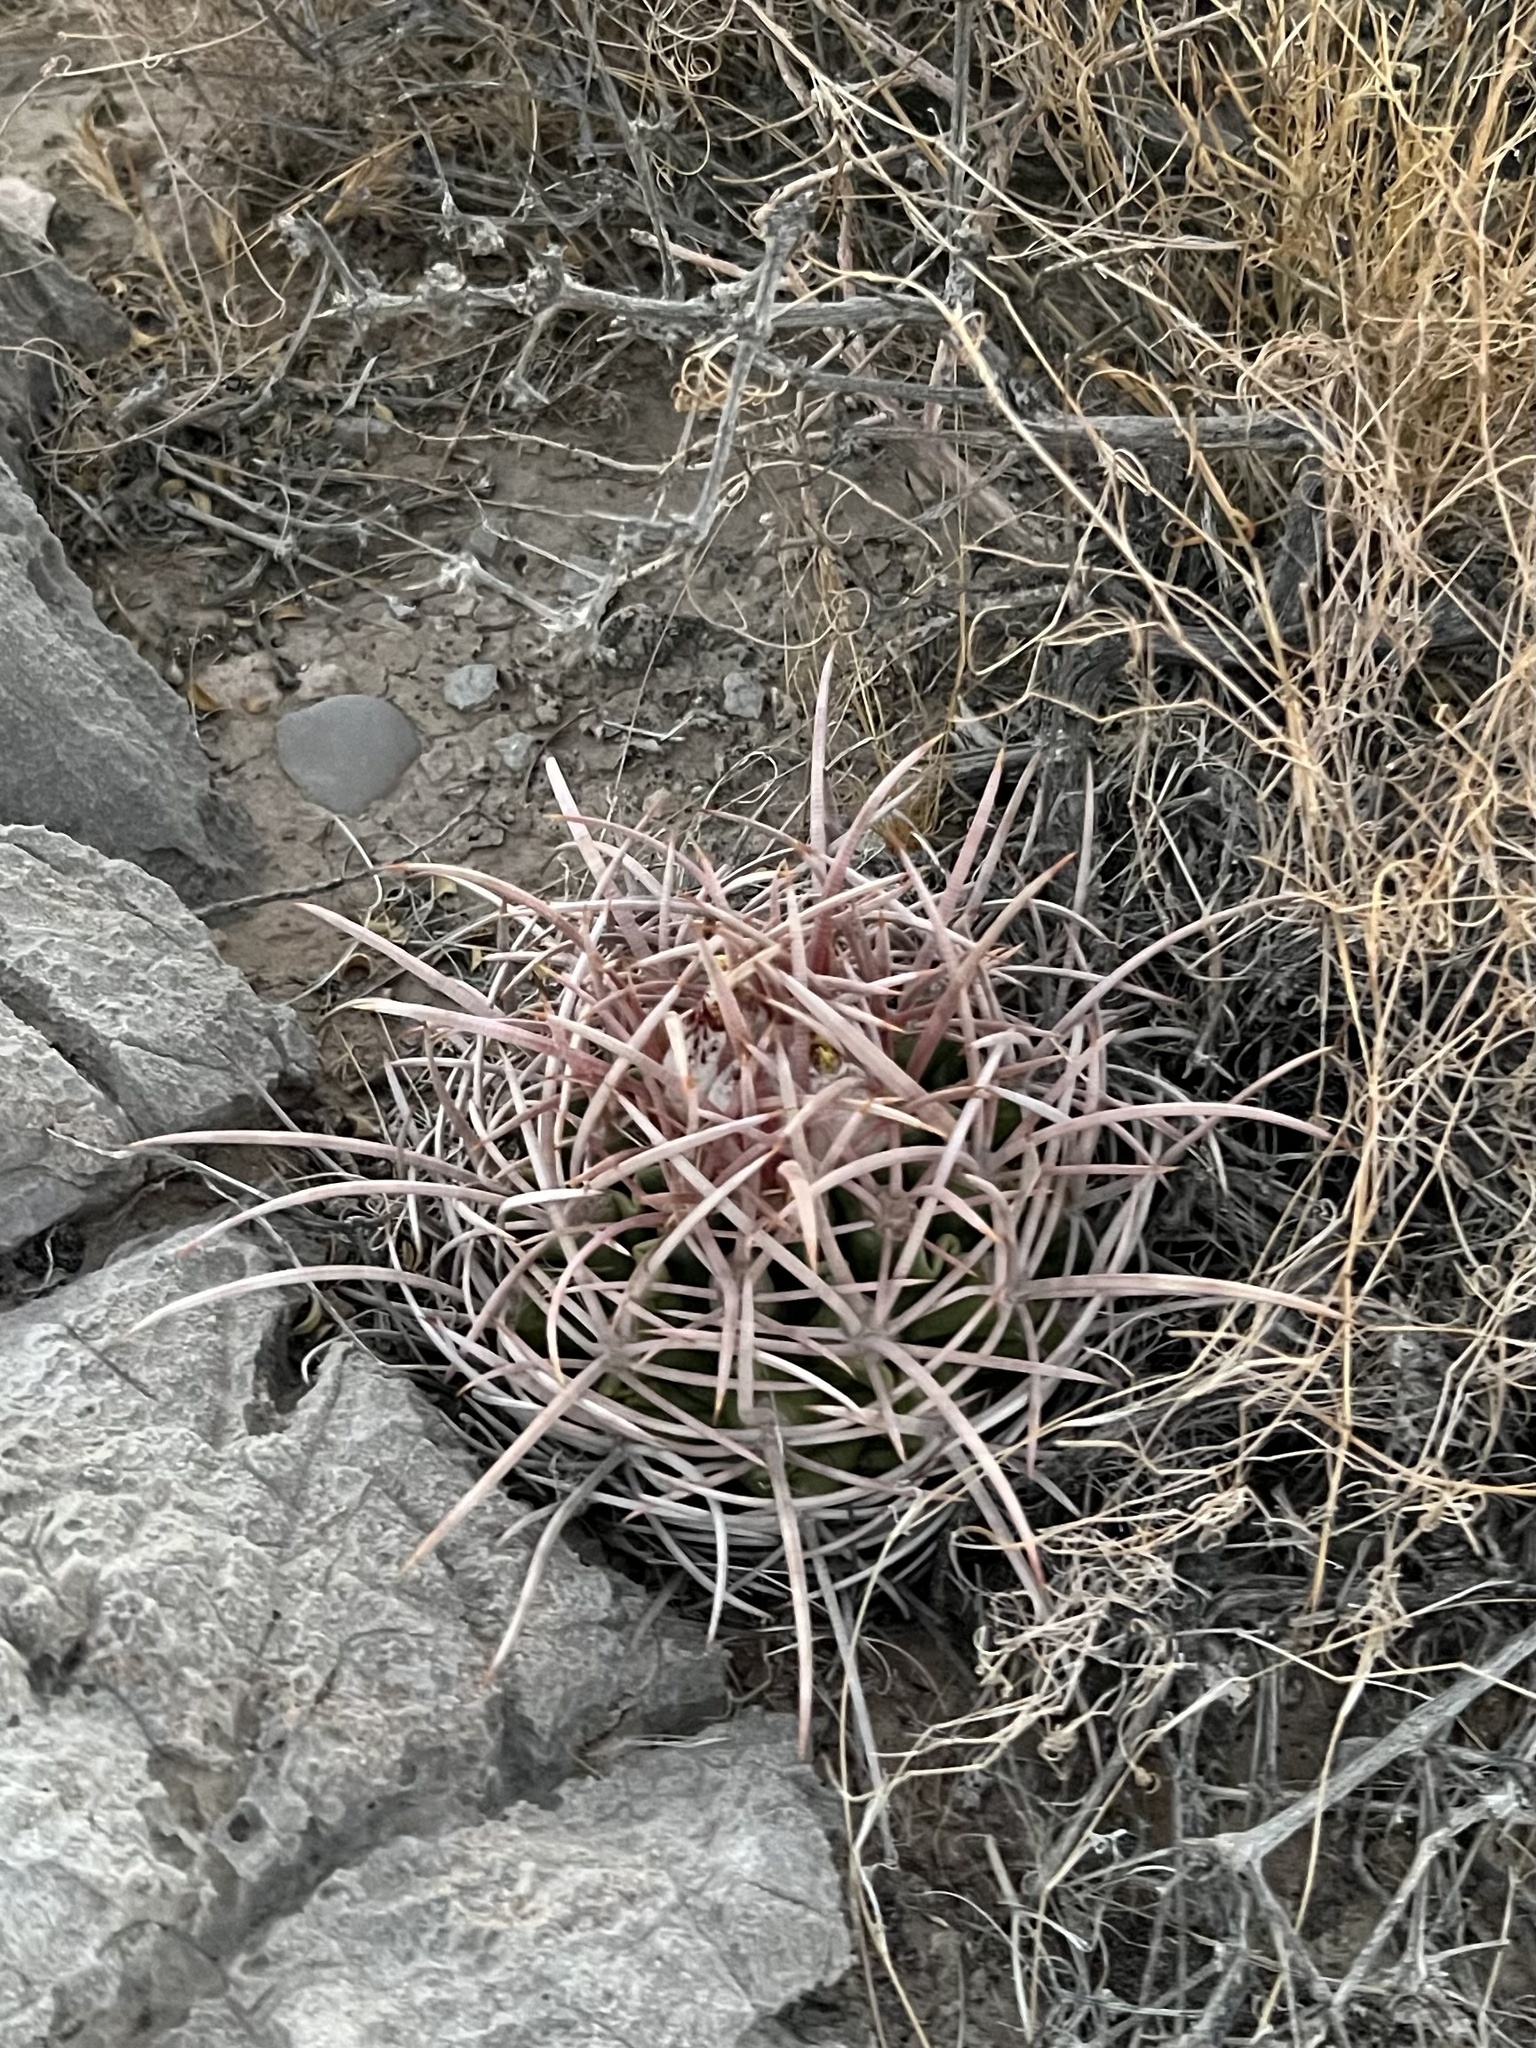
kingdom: Plantae
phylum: Tracheophyta
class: Magnoliopsida
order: Caryophyllales
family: Cactaceae
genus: Echinocactus
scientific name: Echinocactus polycephalus
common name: Cottontop cactus
